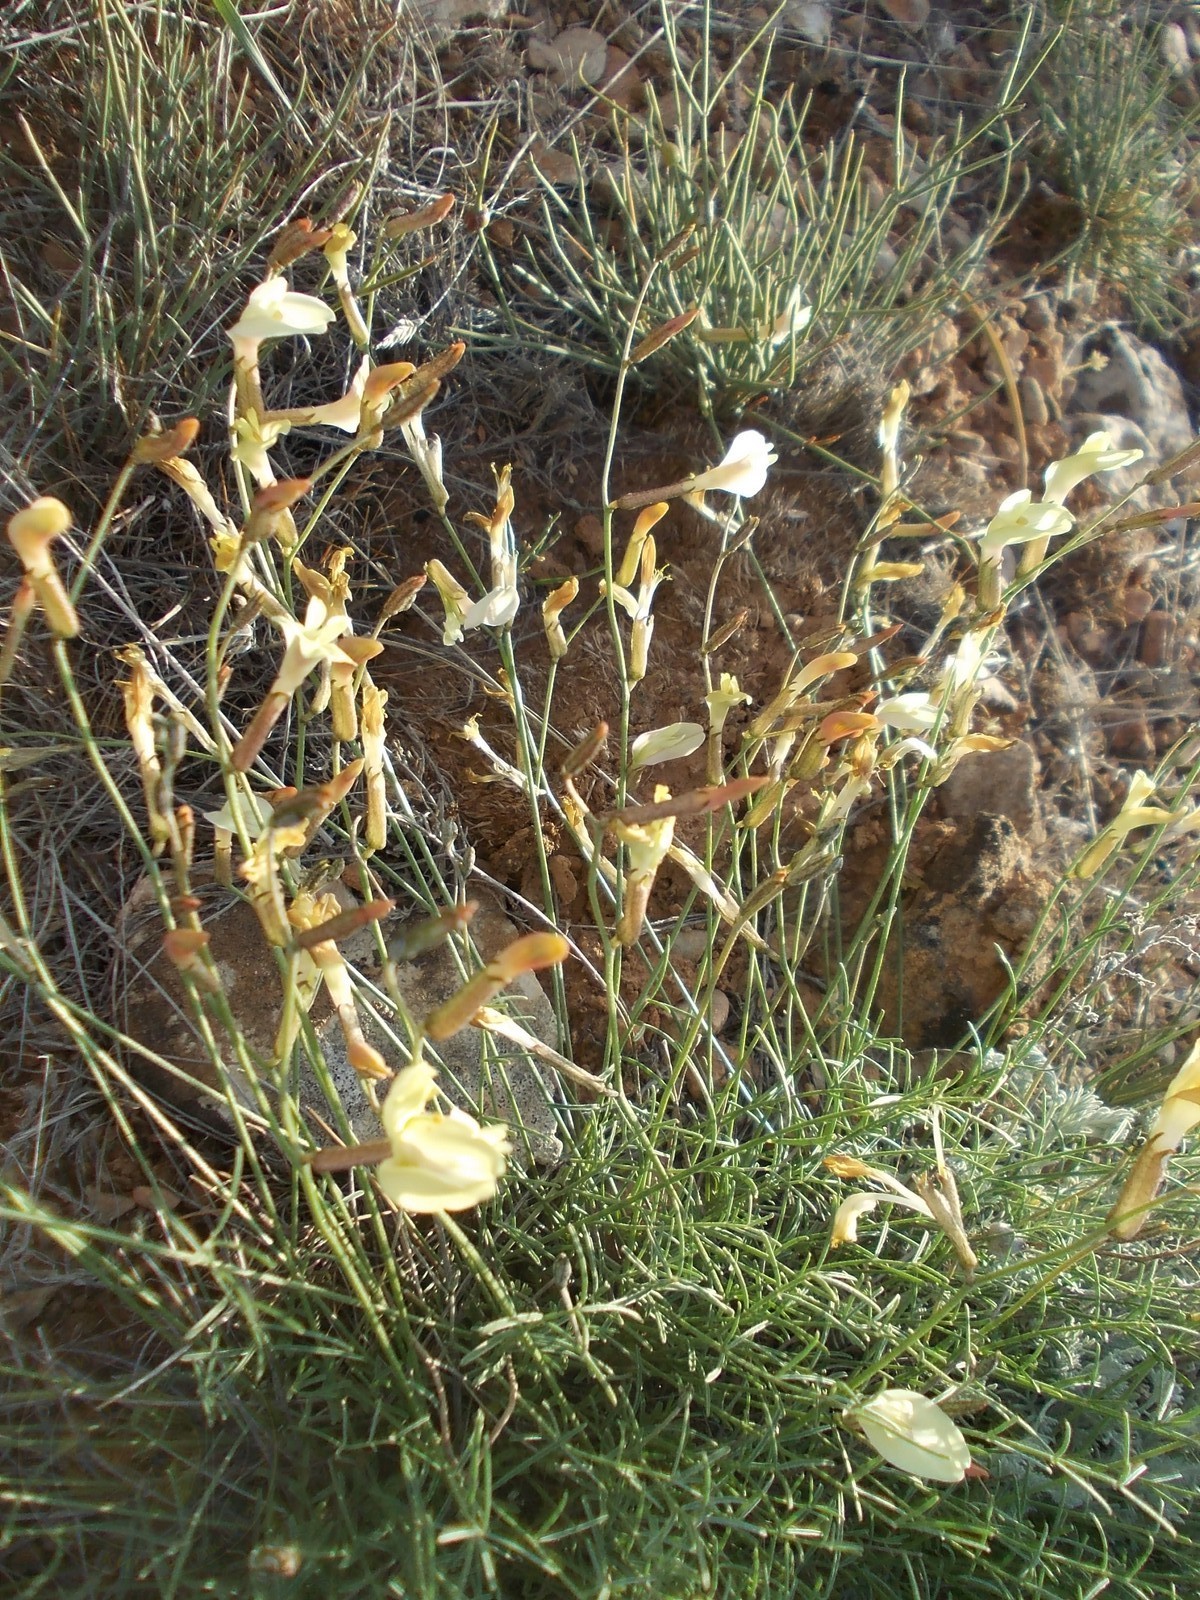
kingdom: Plantae
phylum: Tracheophyta
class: Magnoliopsida
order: Fabales
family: Fabaceae
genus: Astragalus
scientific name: Astragalus ucrainicus
